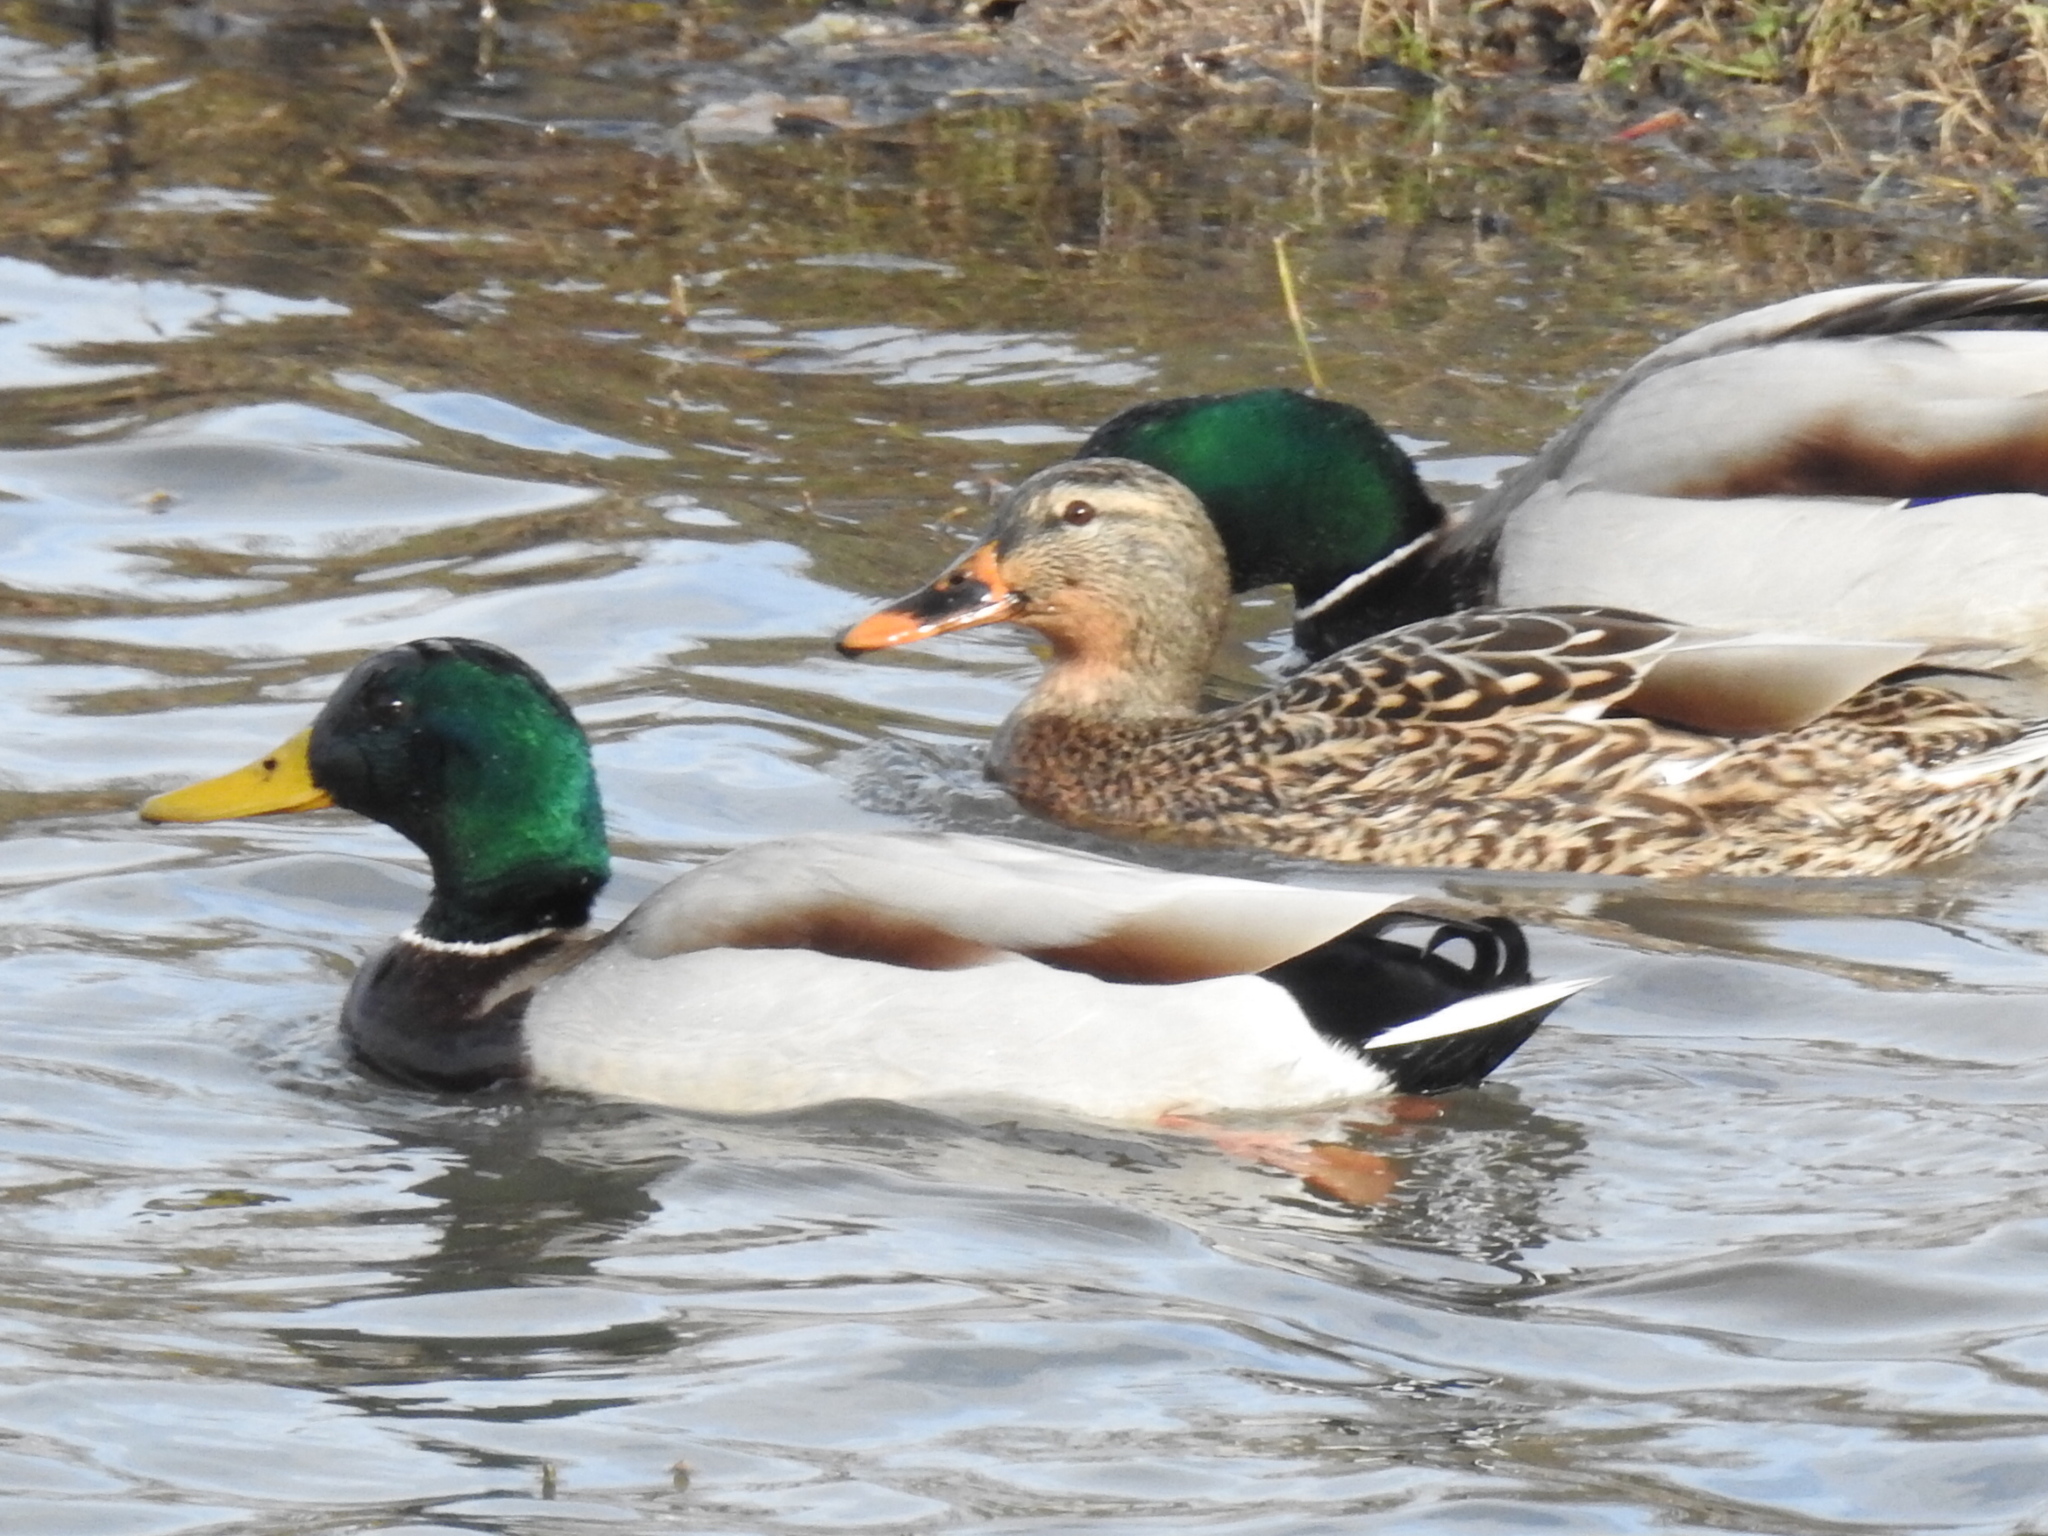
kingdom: Animalia
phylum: Chordata
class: Aves
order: Anseriformes
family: Anatidae
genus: Anas
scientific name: Anas platyrhynchos
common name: Mallard
